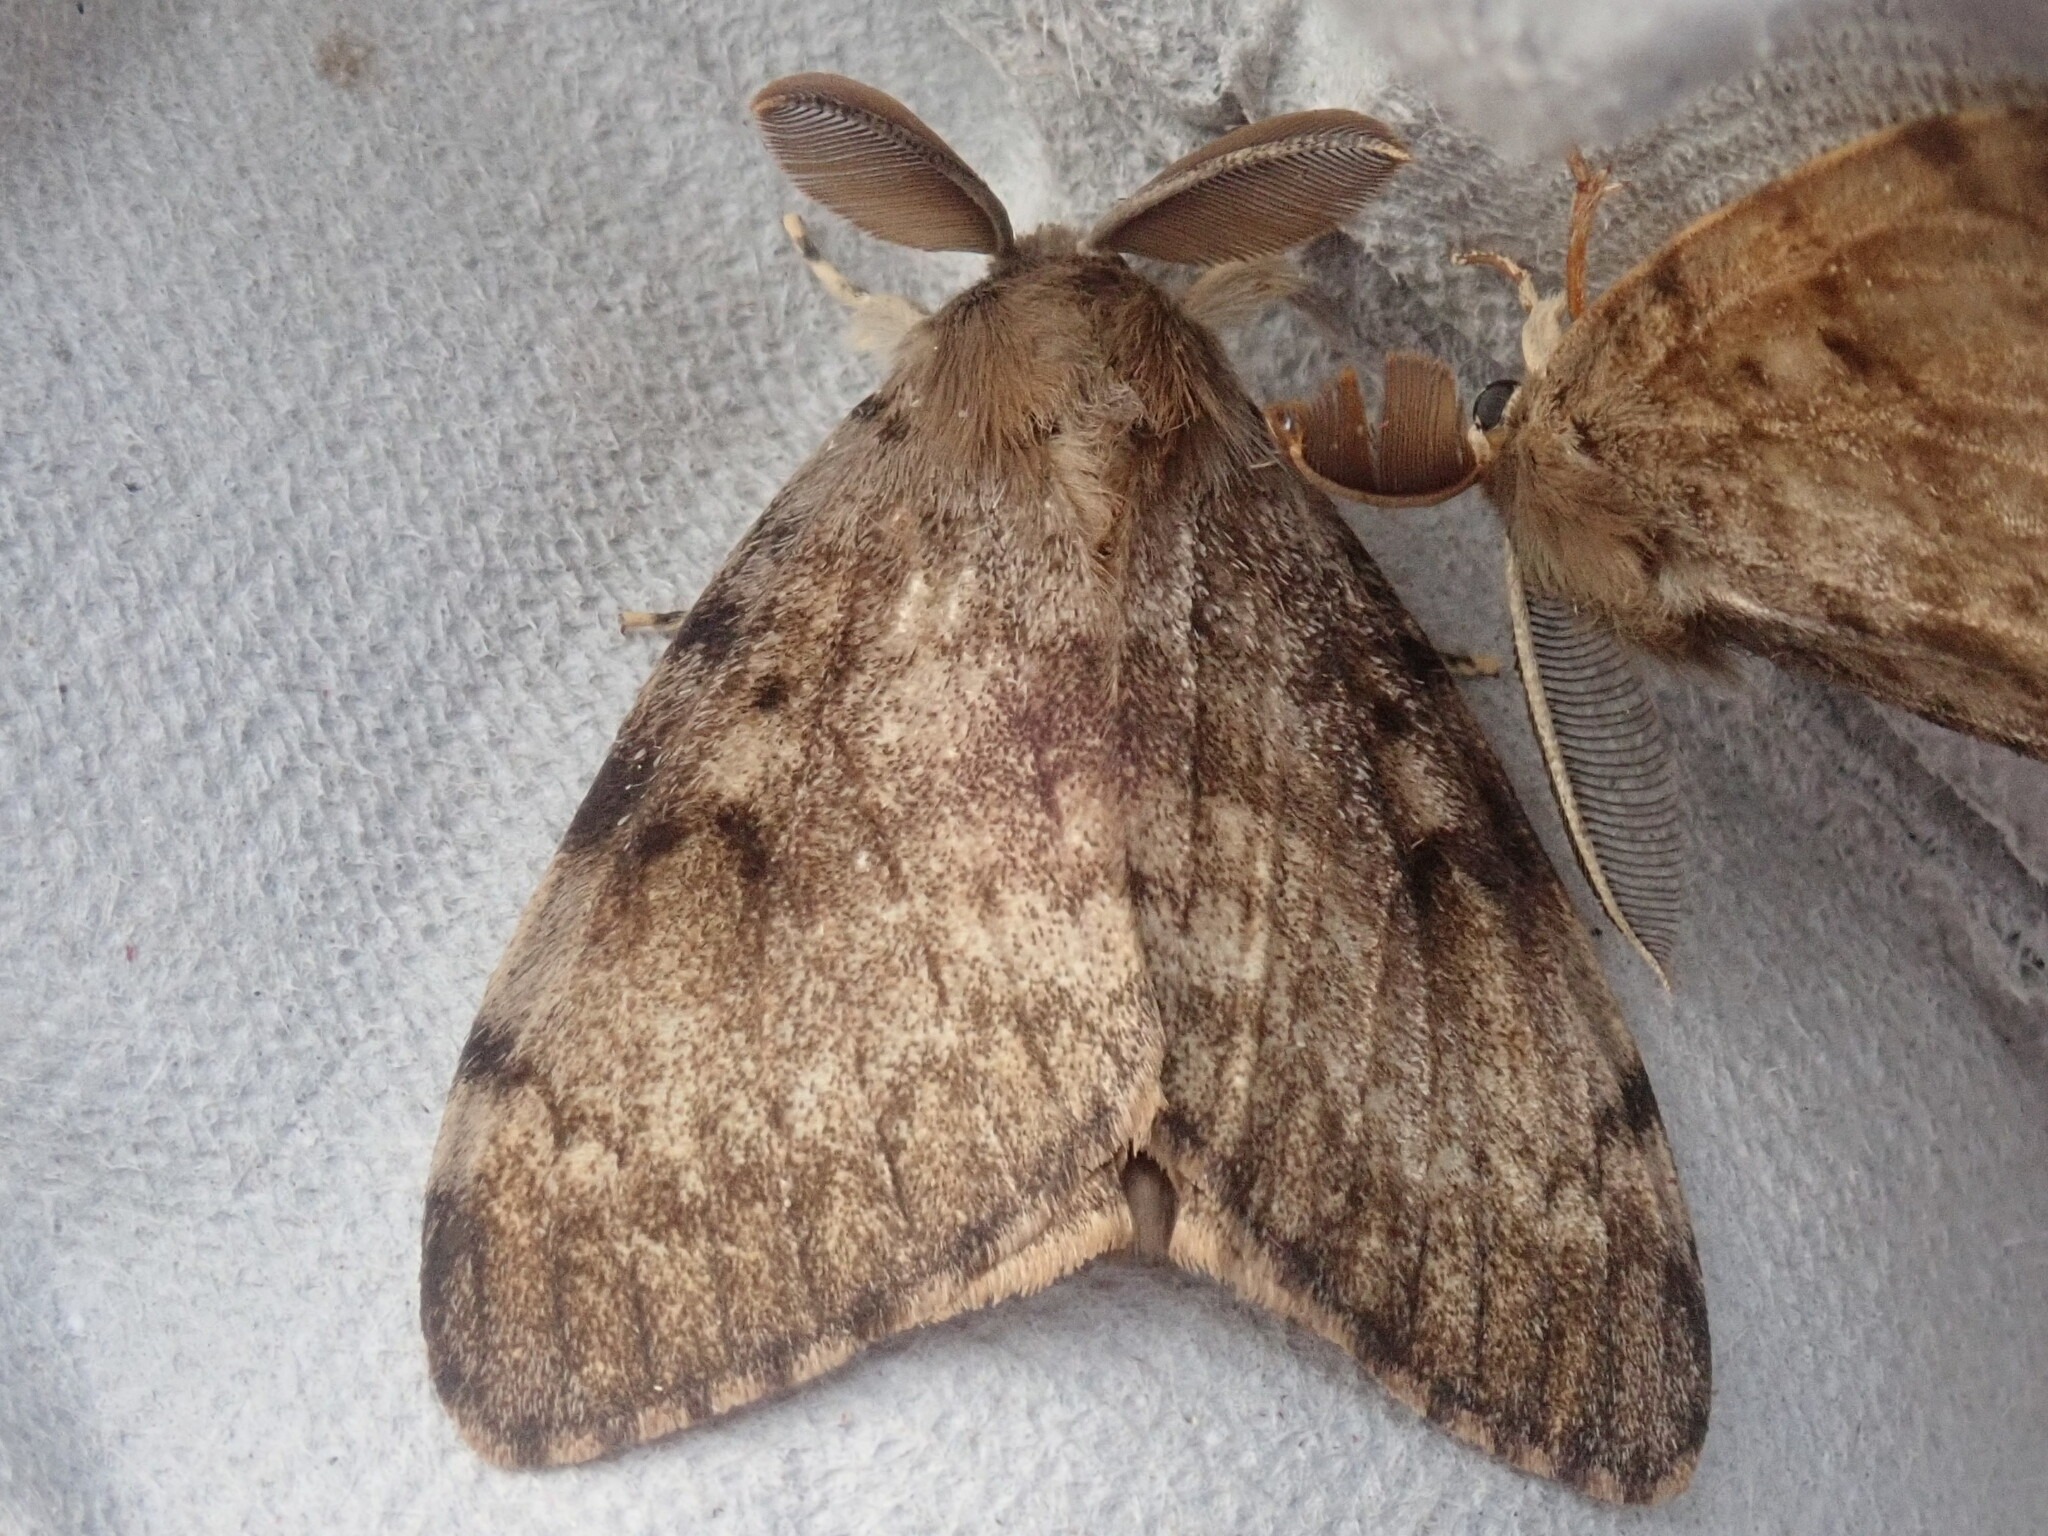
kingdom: Animalia
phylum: Arthropoda
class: Insecta
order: Lepidoptera
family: Erebidae
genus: Lymantria
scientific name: Lymantria dispar
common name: Gypsy moth
